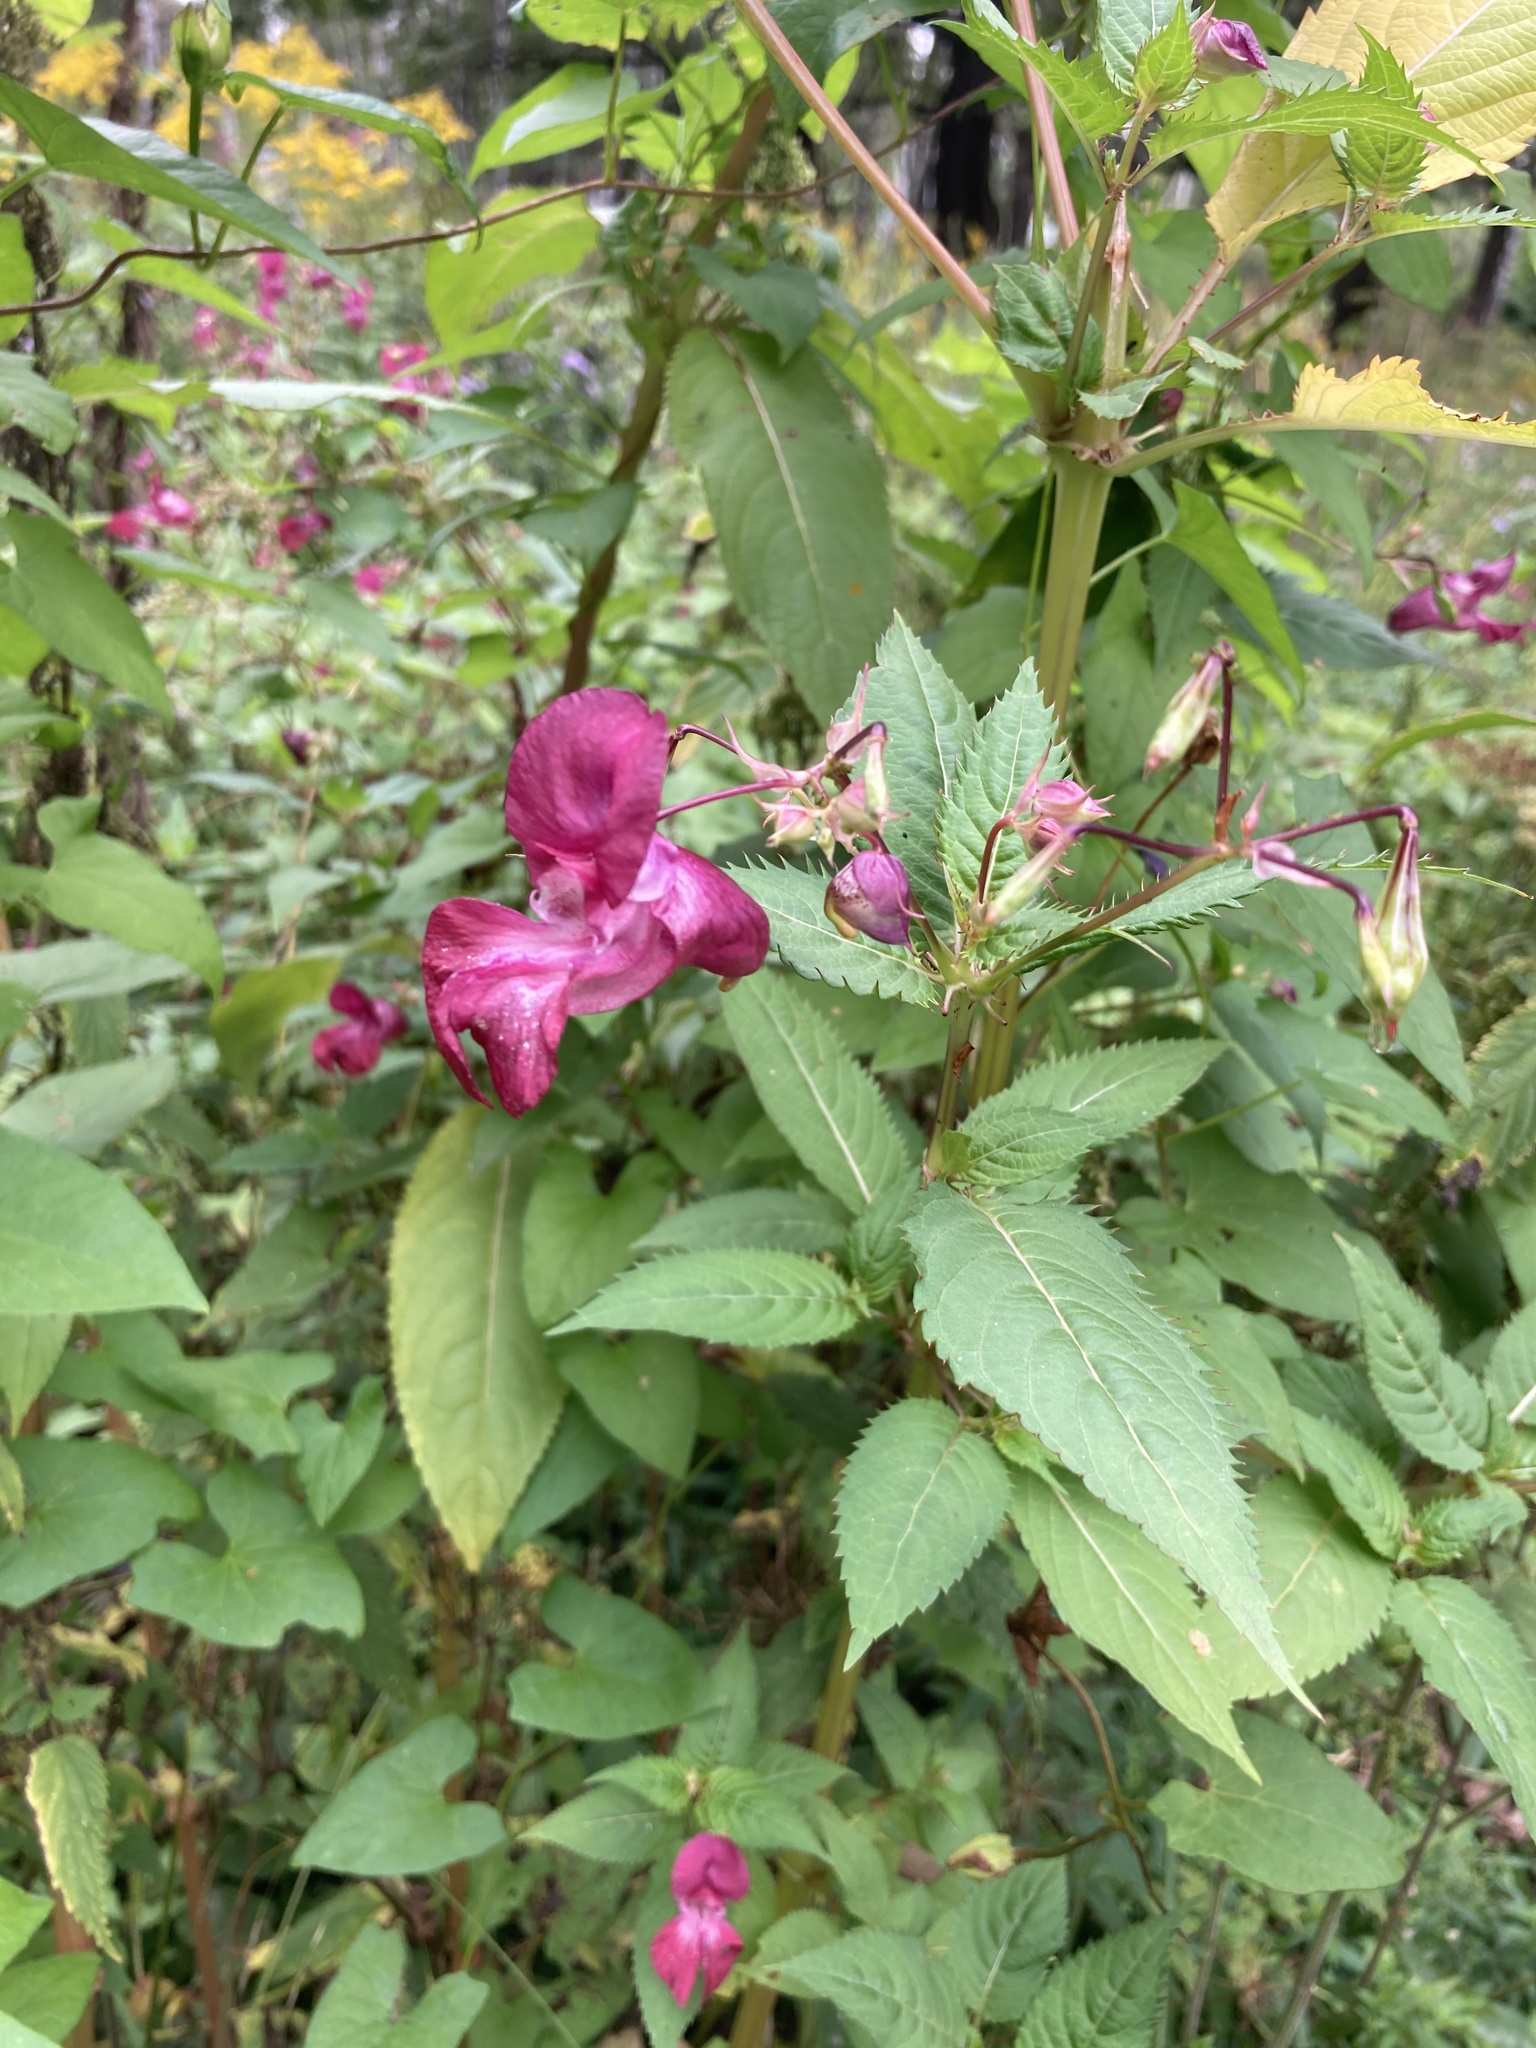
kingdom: Plantae
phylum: Tracheophyta
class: Magnoliopsida
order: Ericales
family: Balsaminaceae
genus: Impatiens
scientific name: Impatiens glandulifera
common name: Himalayan balsam
